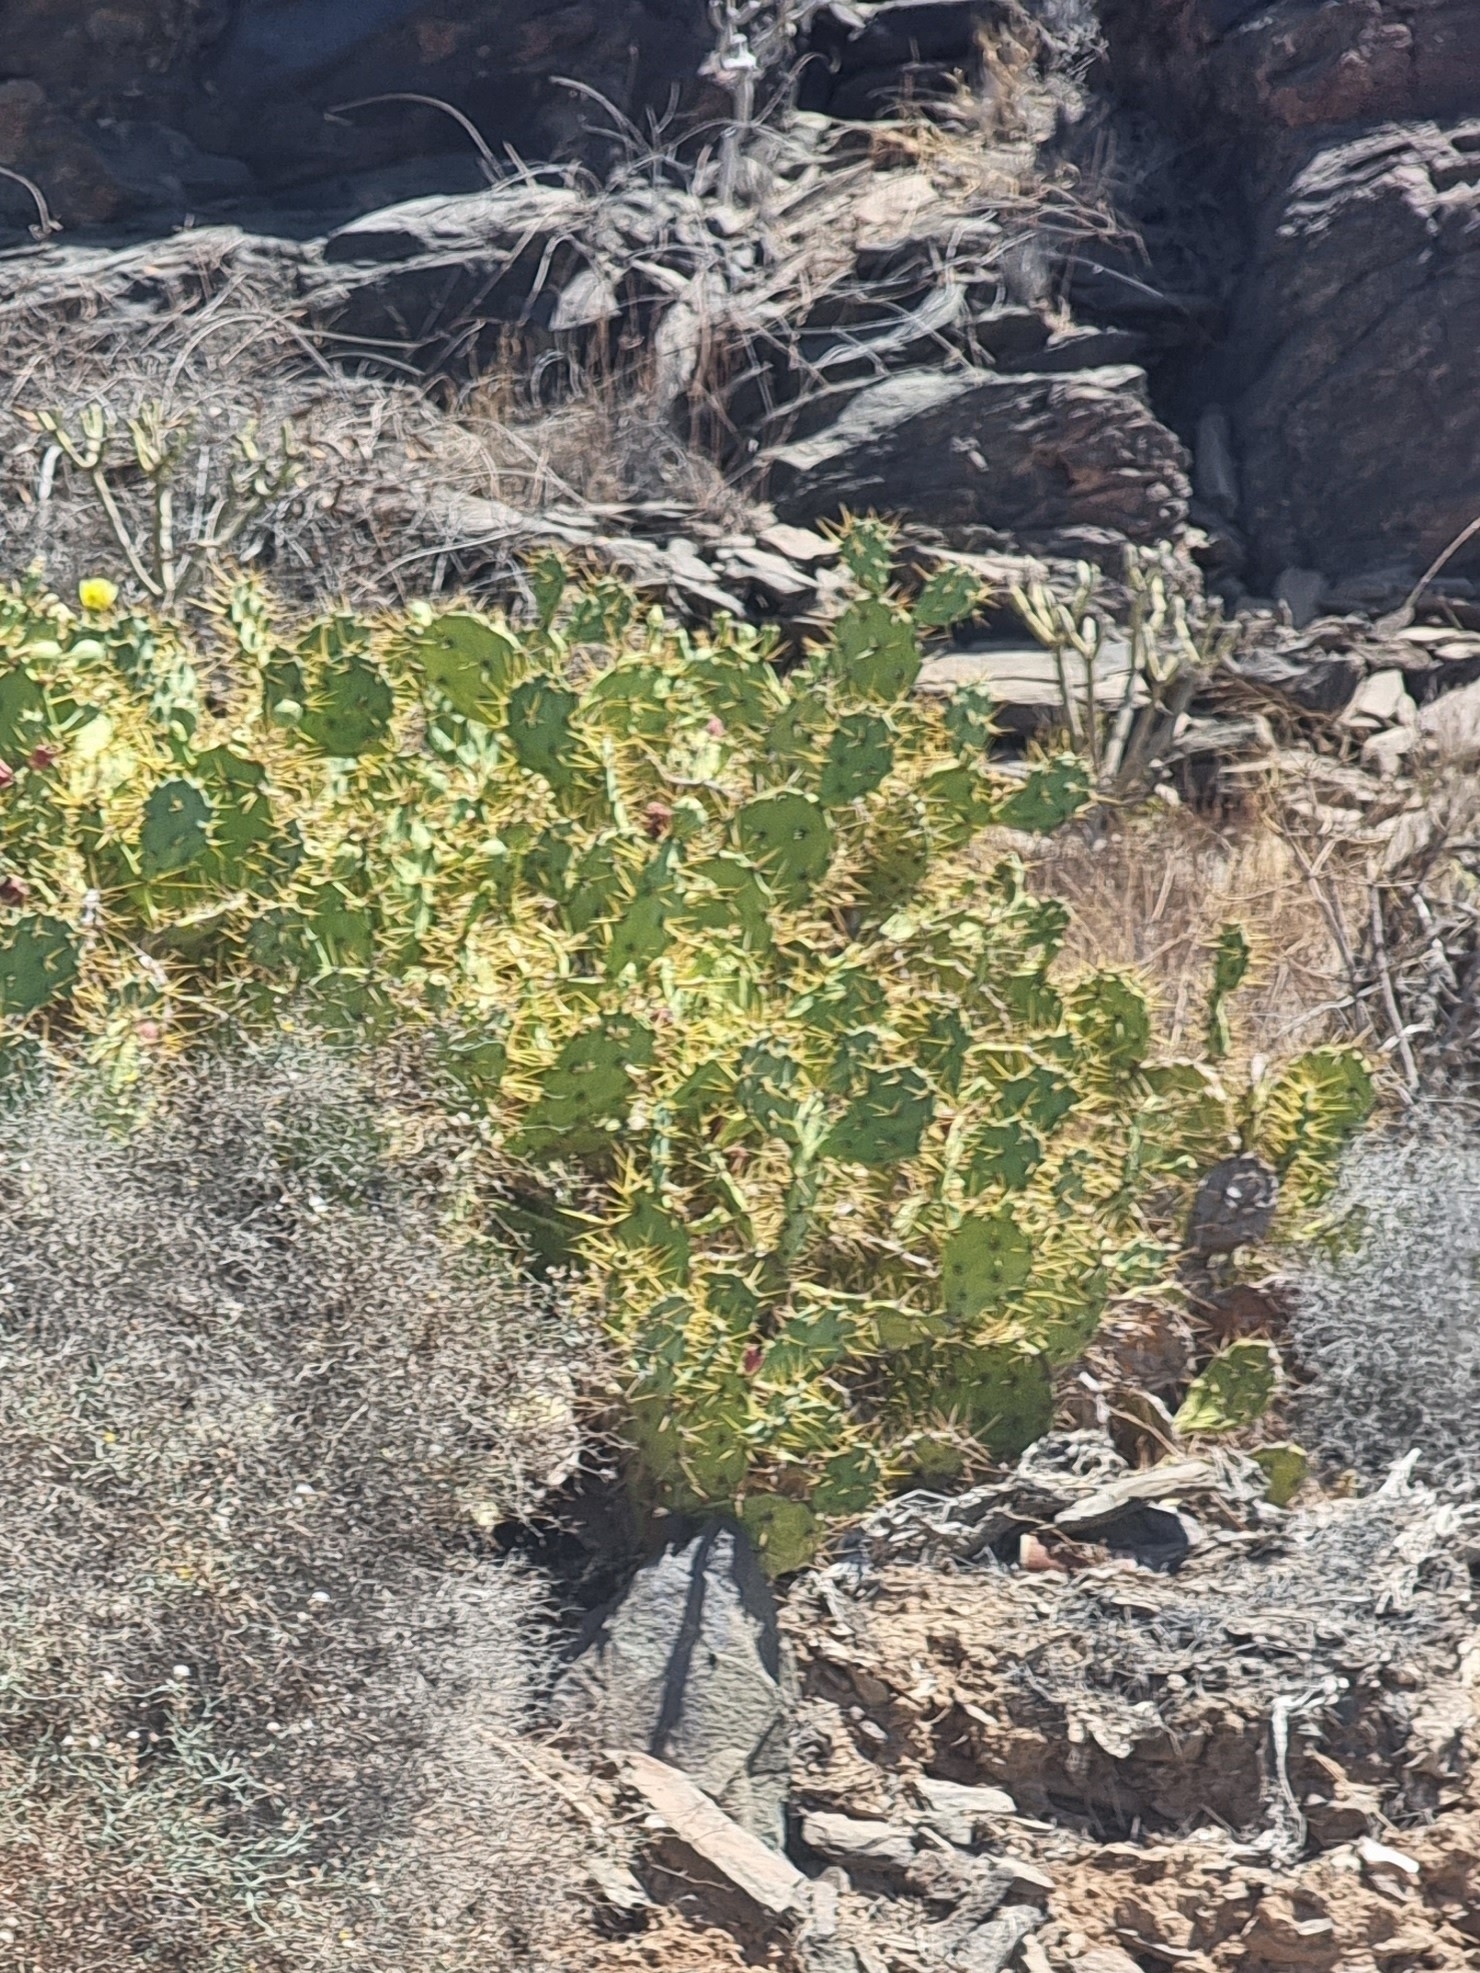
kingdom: Plantae
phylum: Tracheophyta
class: Magnoliopsida
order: Caryophyllales
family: Cactaceae
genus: Opuntia
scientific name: Opuntia stricta
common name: Erect pricklypear
